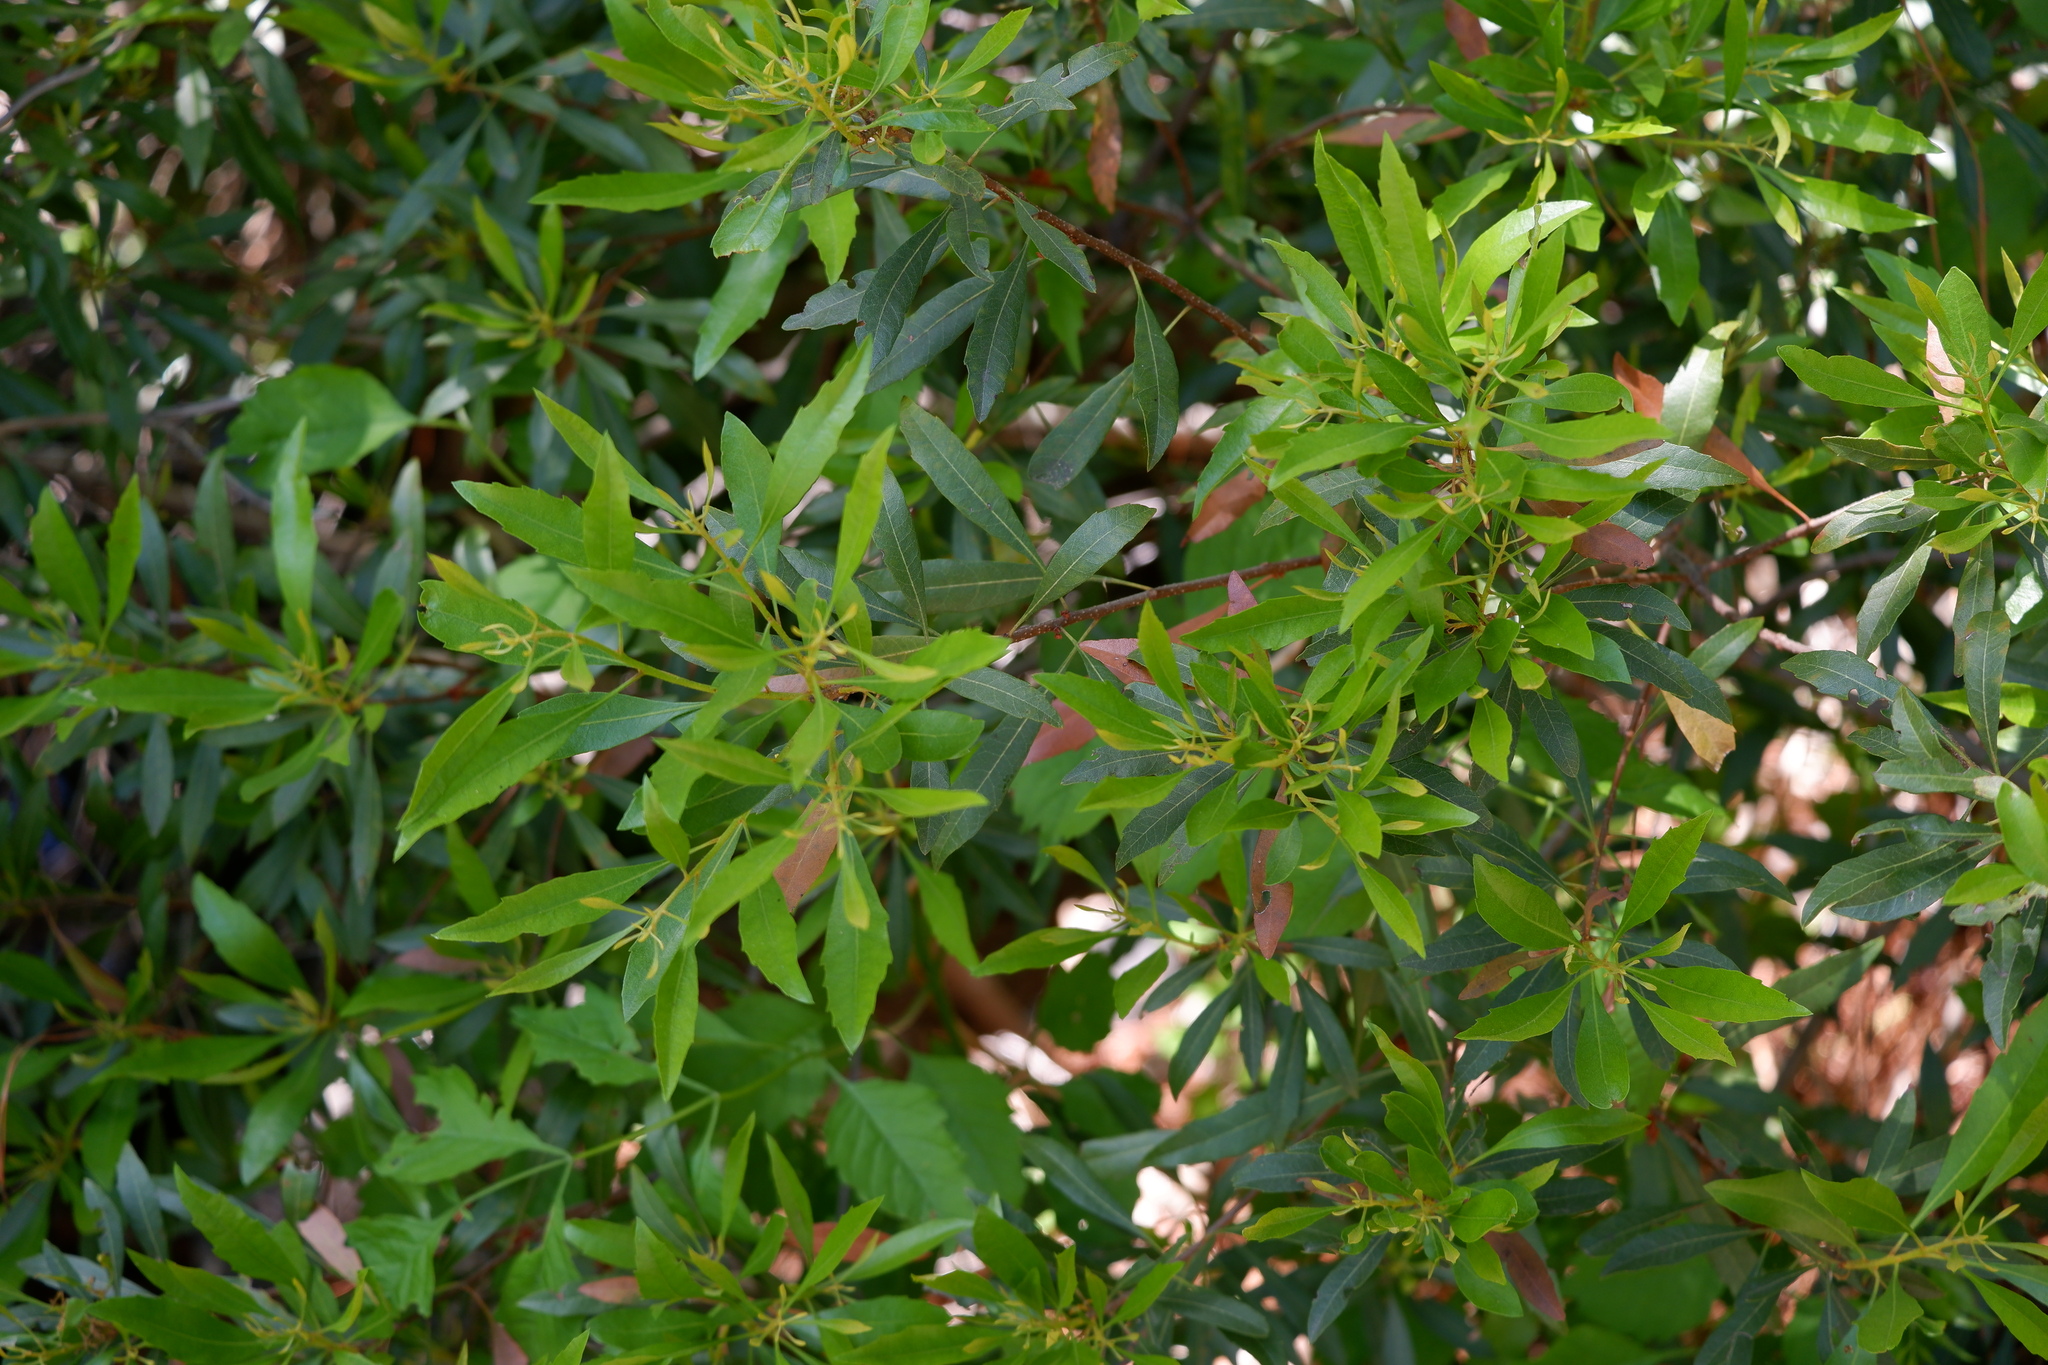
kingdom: Plantae
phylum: Tracheophyta
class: Magnoliopsida
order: Fagales
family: Myricaceae
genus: Morella
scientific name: Morella cerifera
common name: Wax myrtle
